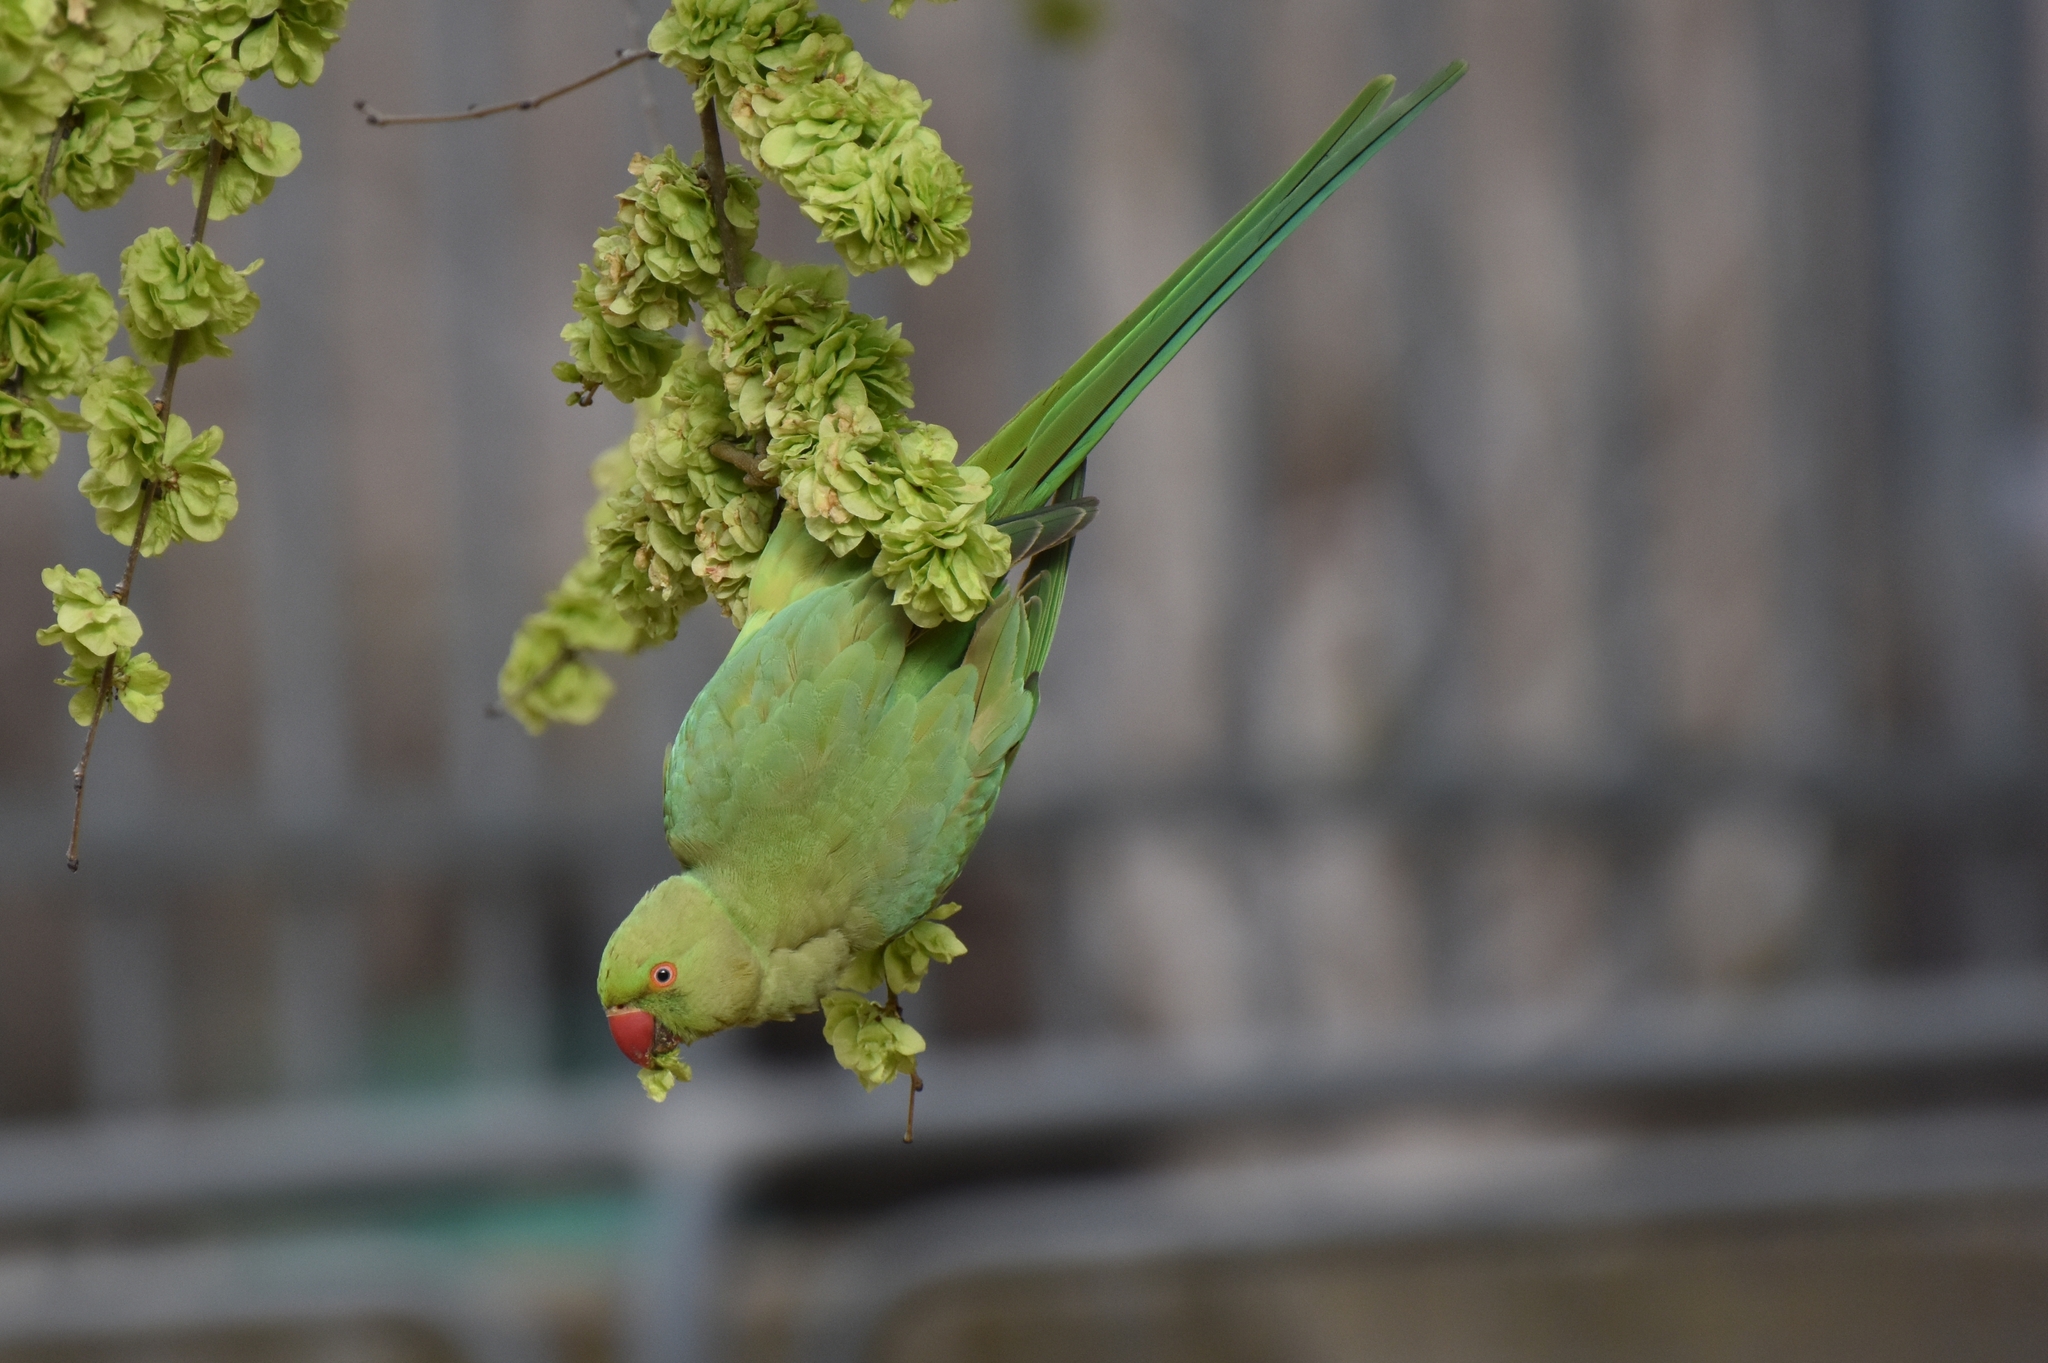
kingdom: Animalia
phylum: Chordata
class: Aves
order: Psittaciformes
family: Psittacidae
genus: Psittacula
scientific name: Psittacula krameri
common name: Rose-ringed parakeet
